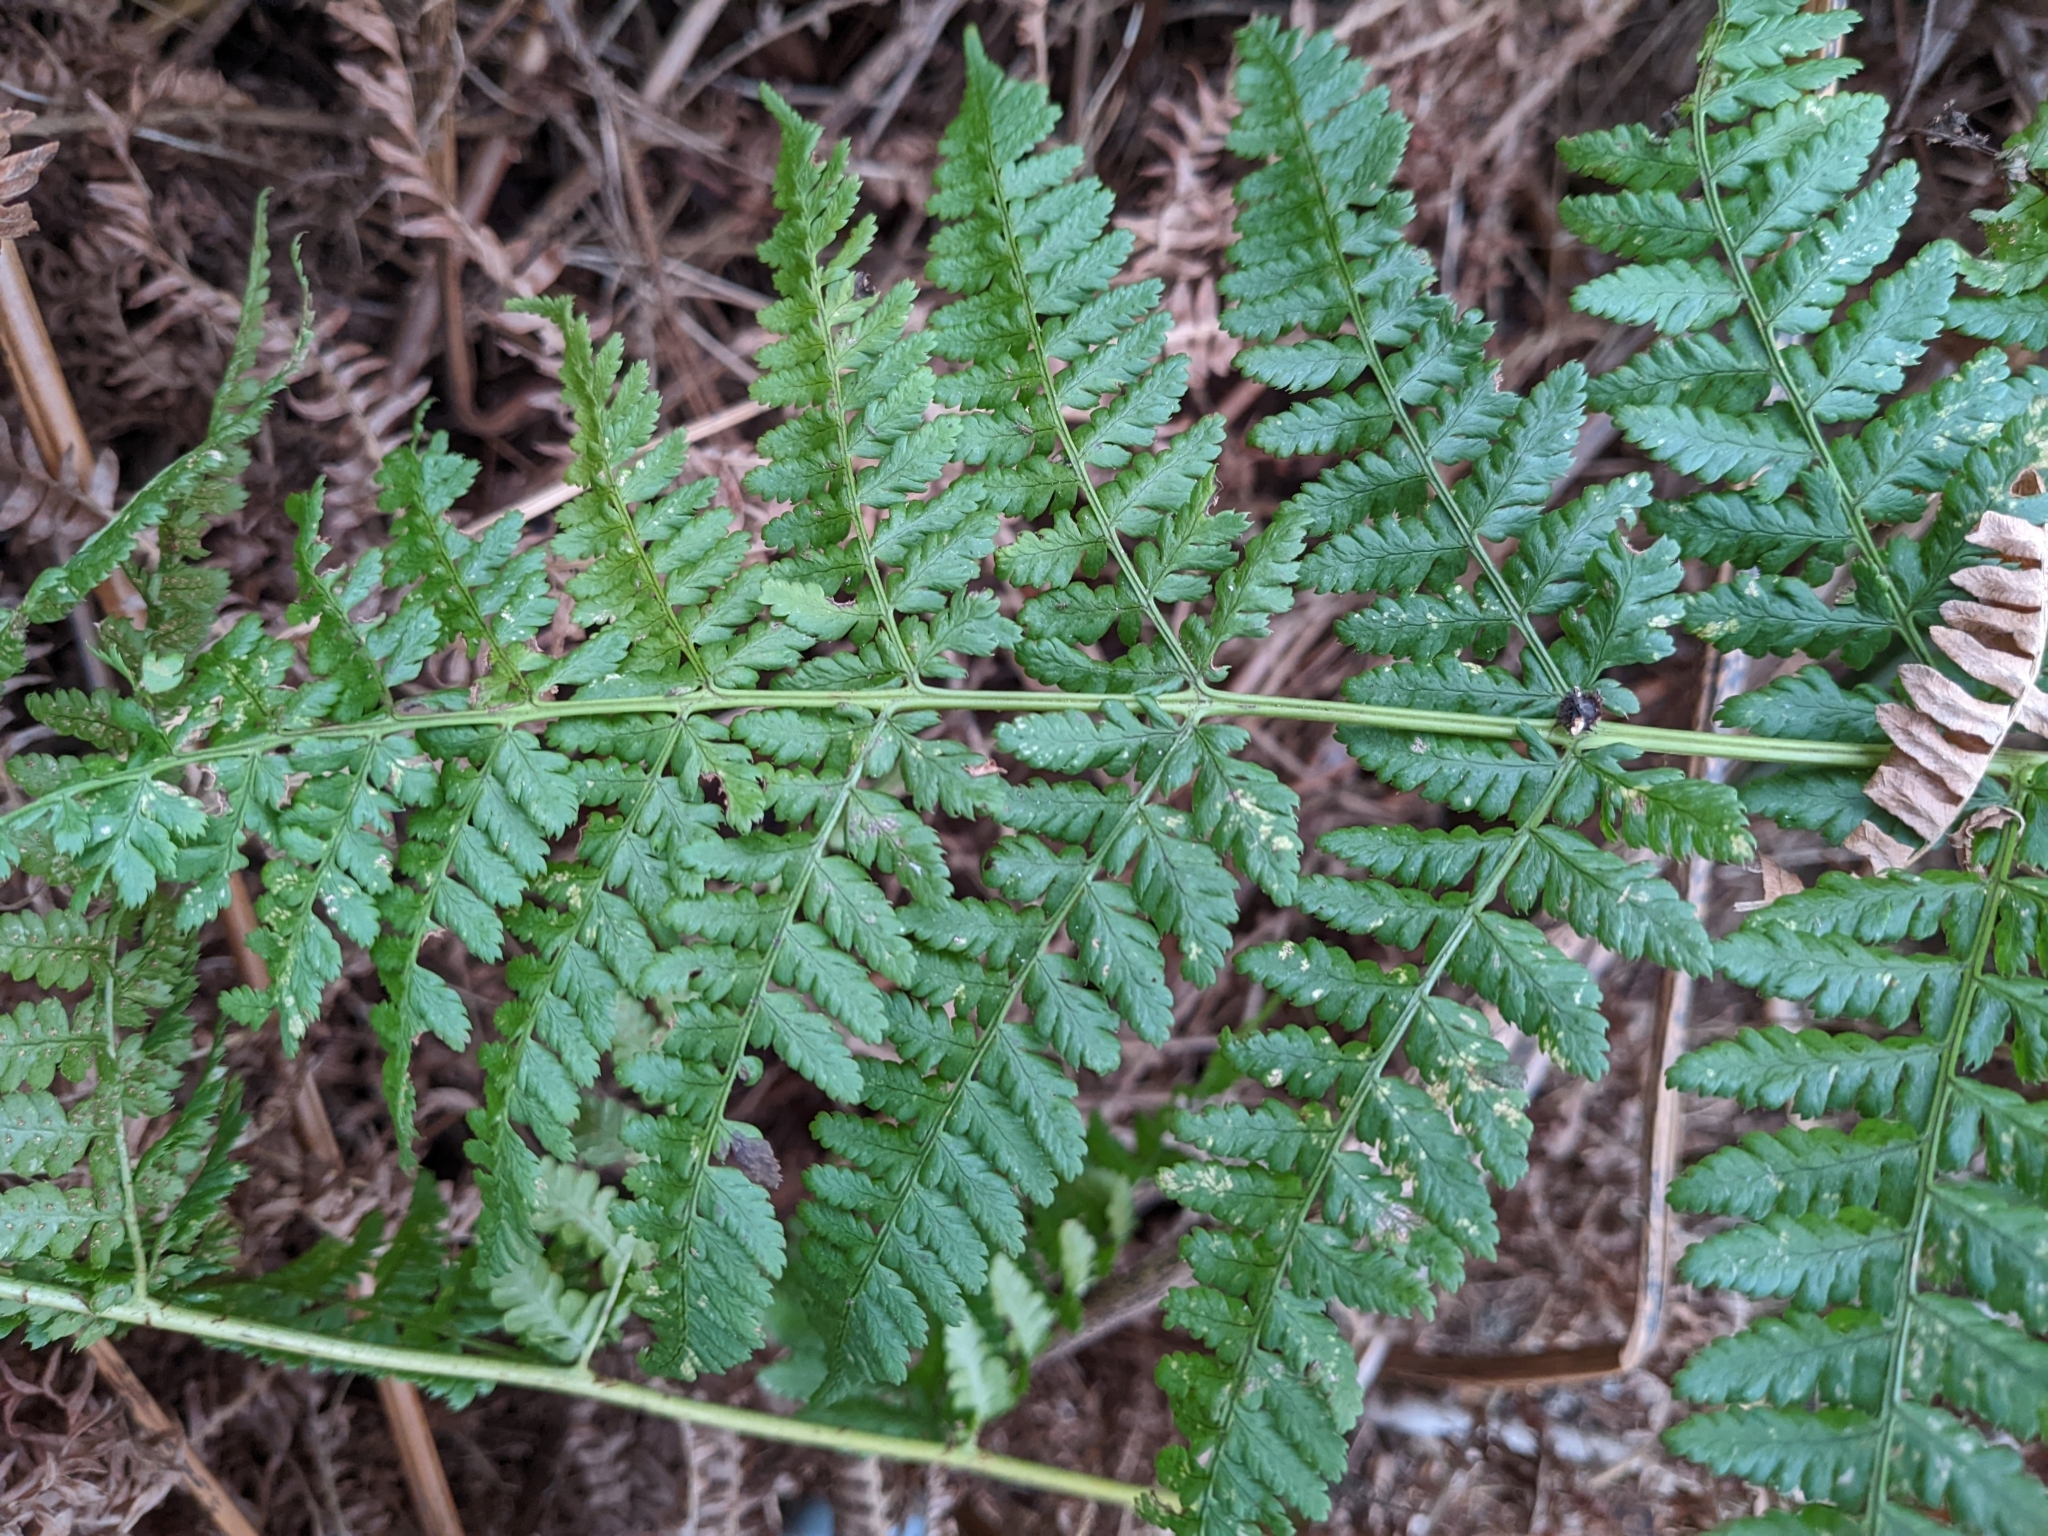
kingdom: Plantae
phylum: Tracheophyta
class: Polypodiopsida
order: Polypodiales
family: Dryopteridaceae
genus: Dryopteris
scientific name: Dryopteris dilatata
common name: Broad buckler-fern
